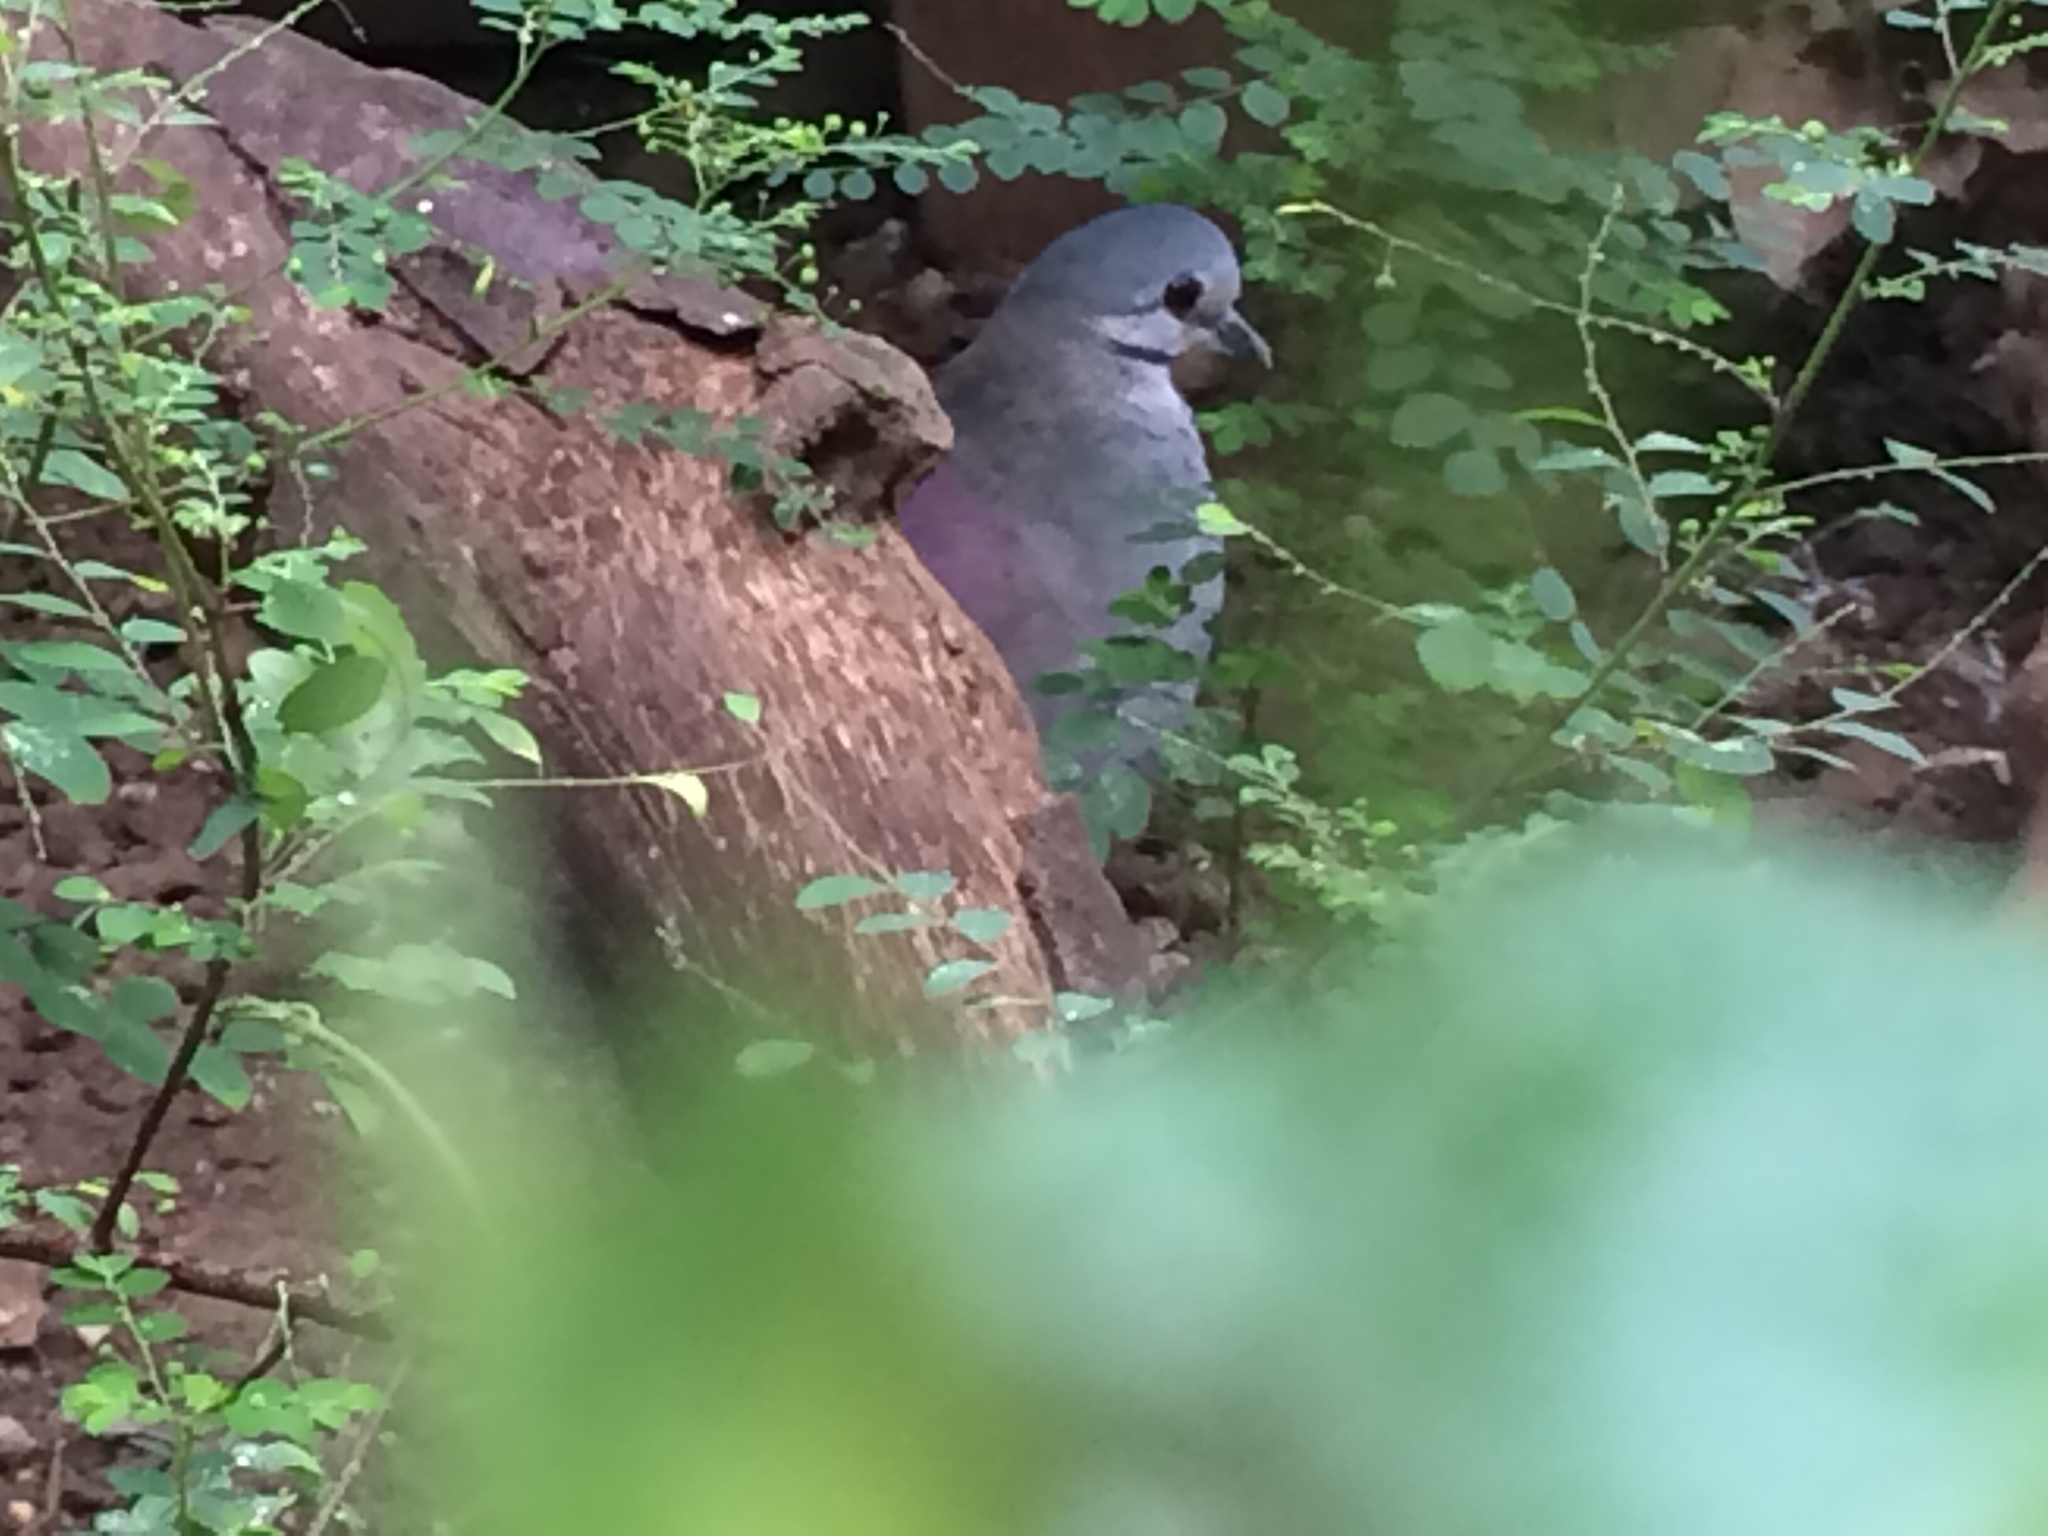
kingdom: Animalia
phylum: Chordata
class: Aves
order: Columbiformes
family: Columbidae
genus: Zentrygon
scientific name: Zentrygon carrikeri
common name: Tuxtla quail-dove
